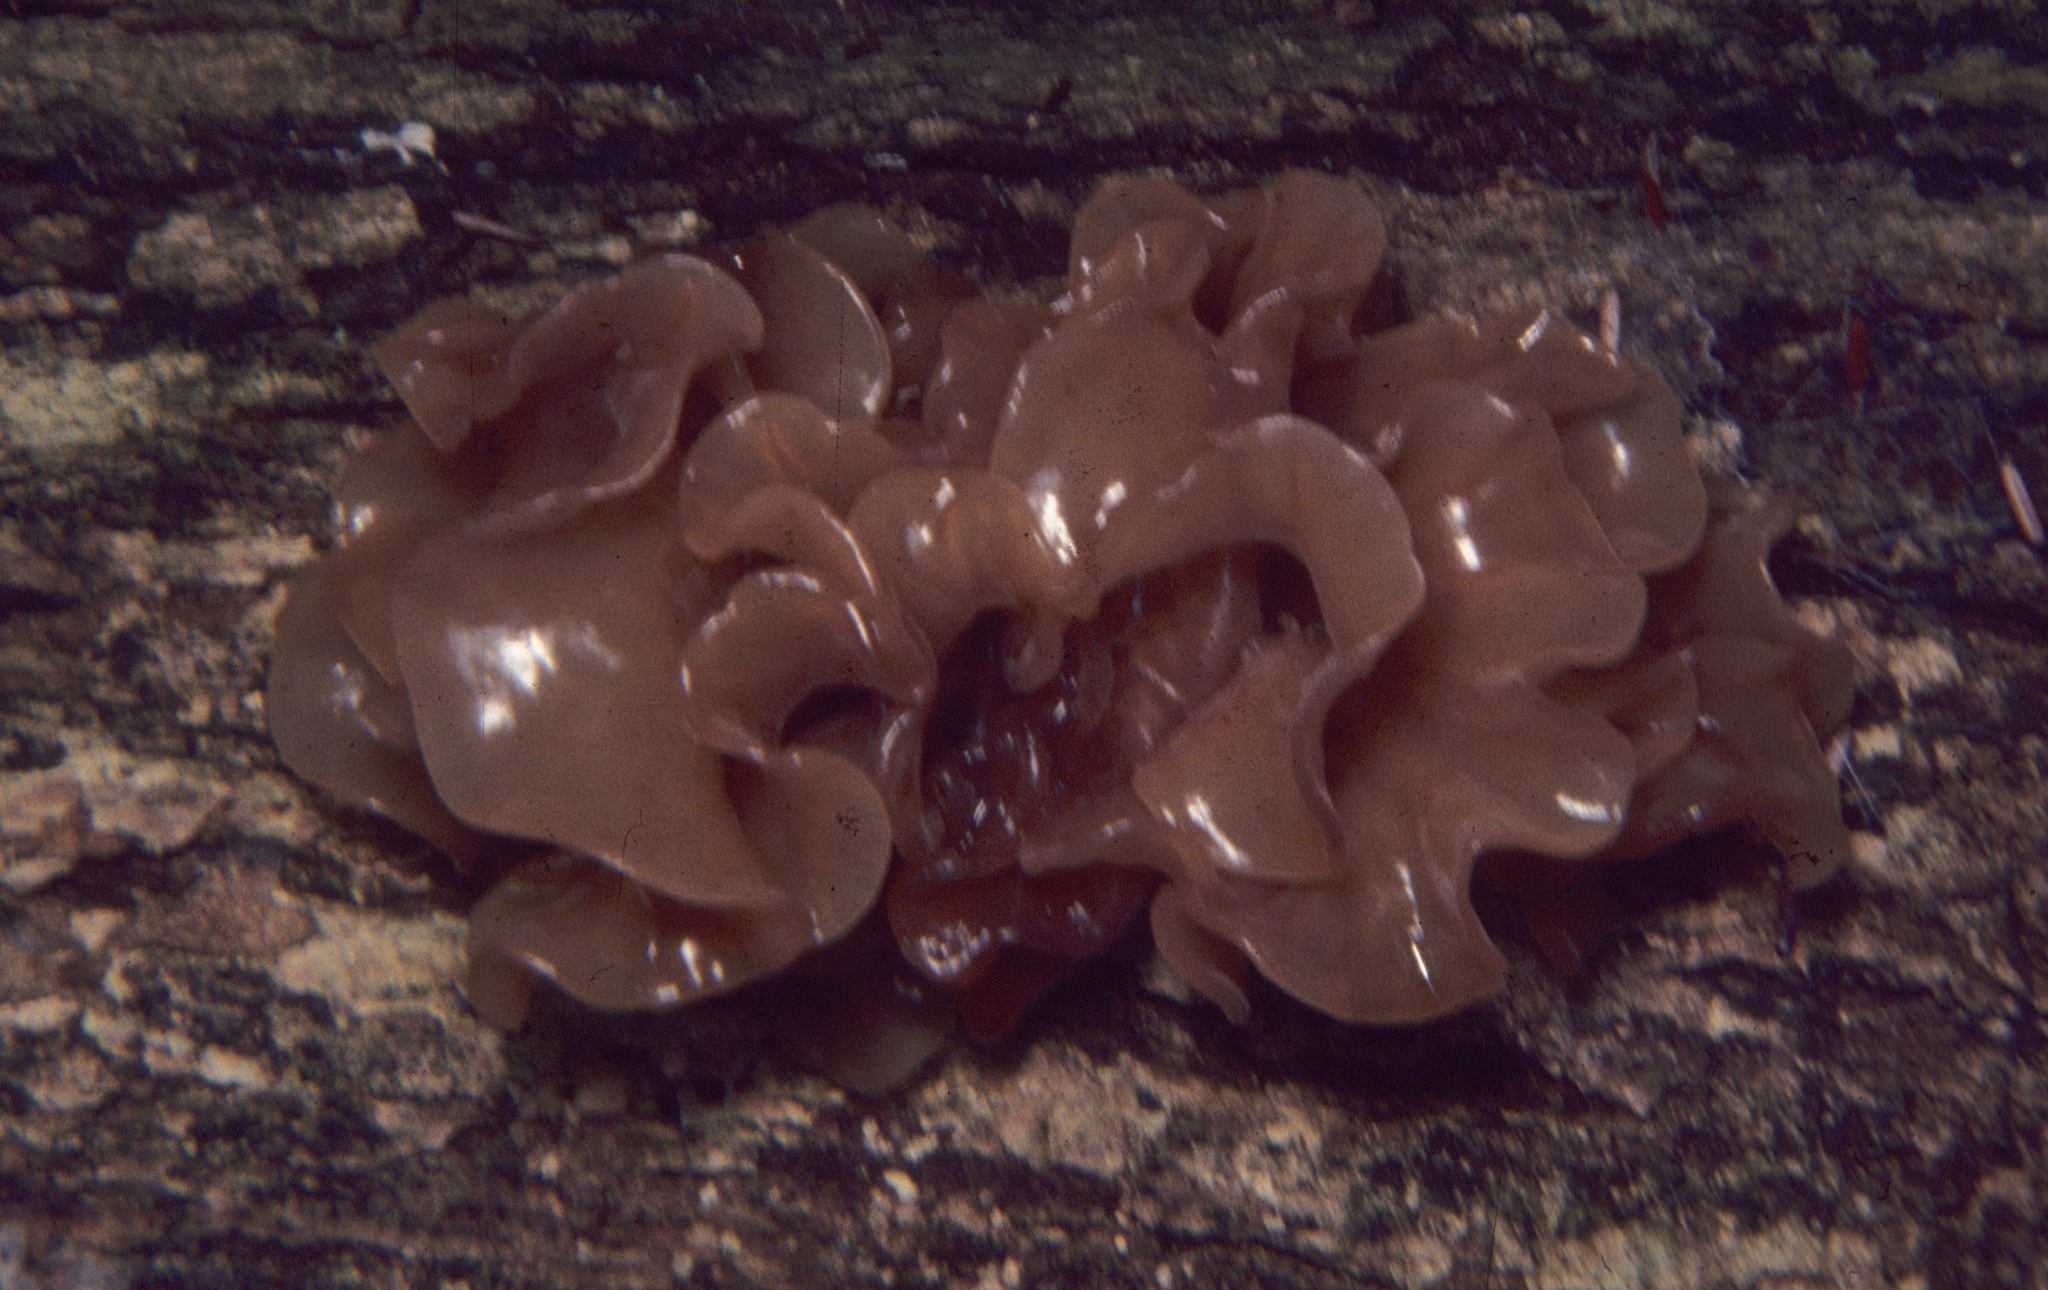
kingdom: Fungi
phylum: Basidiomycota
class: Tremellomycetes
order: Tremellales
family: Tremellaceae
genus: Phaeotremella
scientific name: Phaeotremella foliacea
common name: Leafy brain
